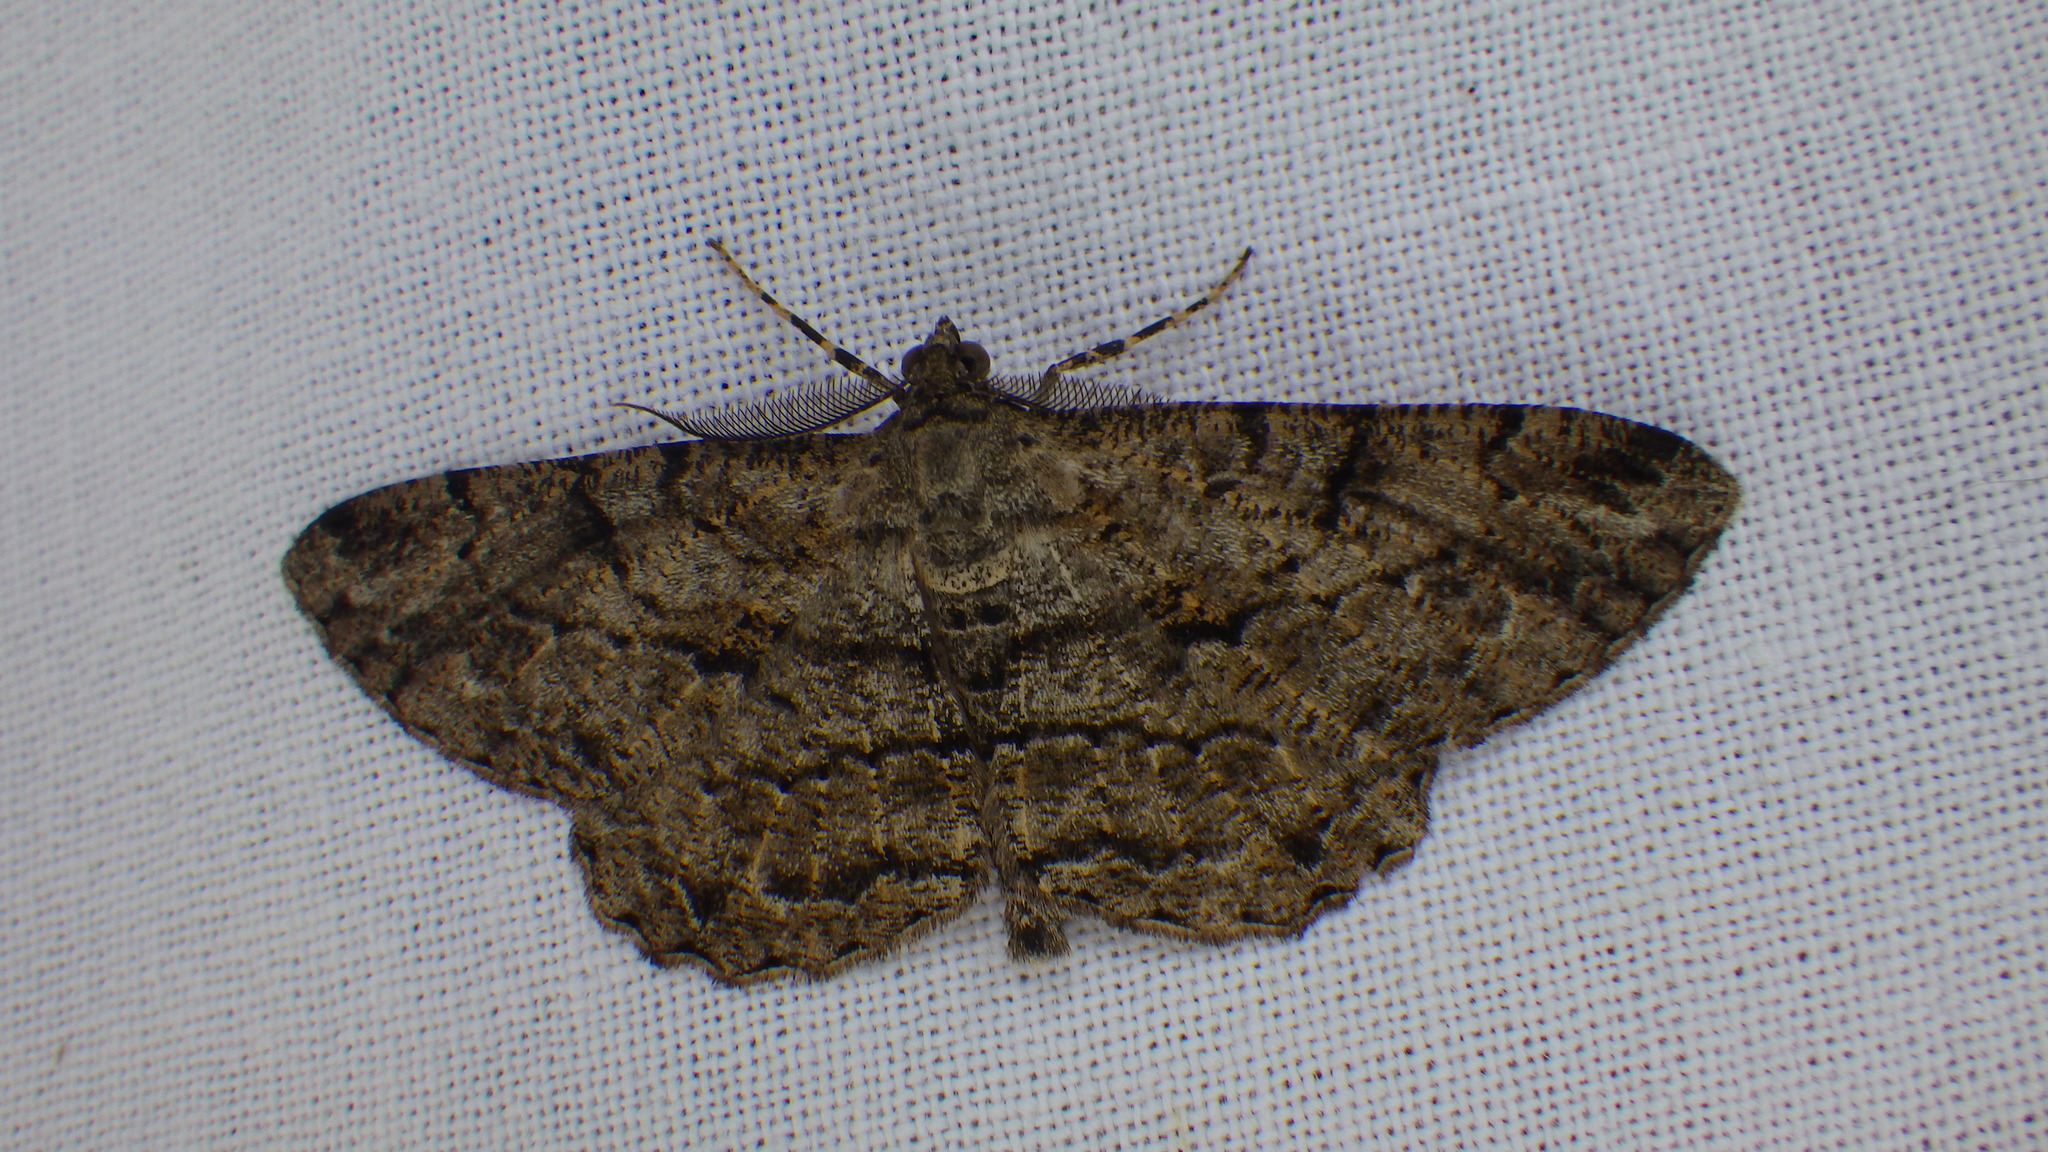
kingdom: Animalia
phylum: Arthropoda
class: Insecta
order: Lepidoptera
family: Geometridae
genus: Peribatodes
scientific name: Peribatodes rhomboidaria
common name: Willow beauty
